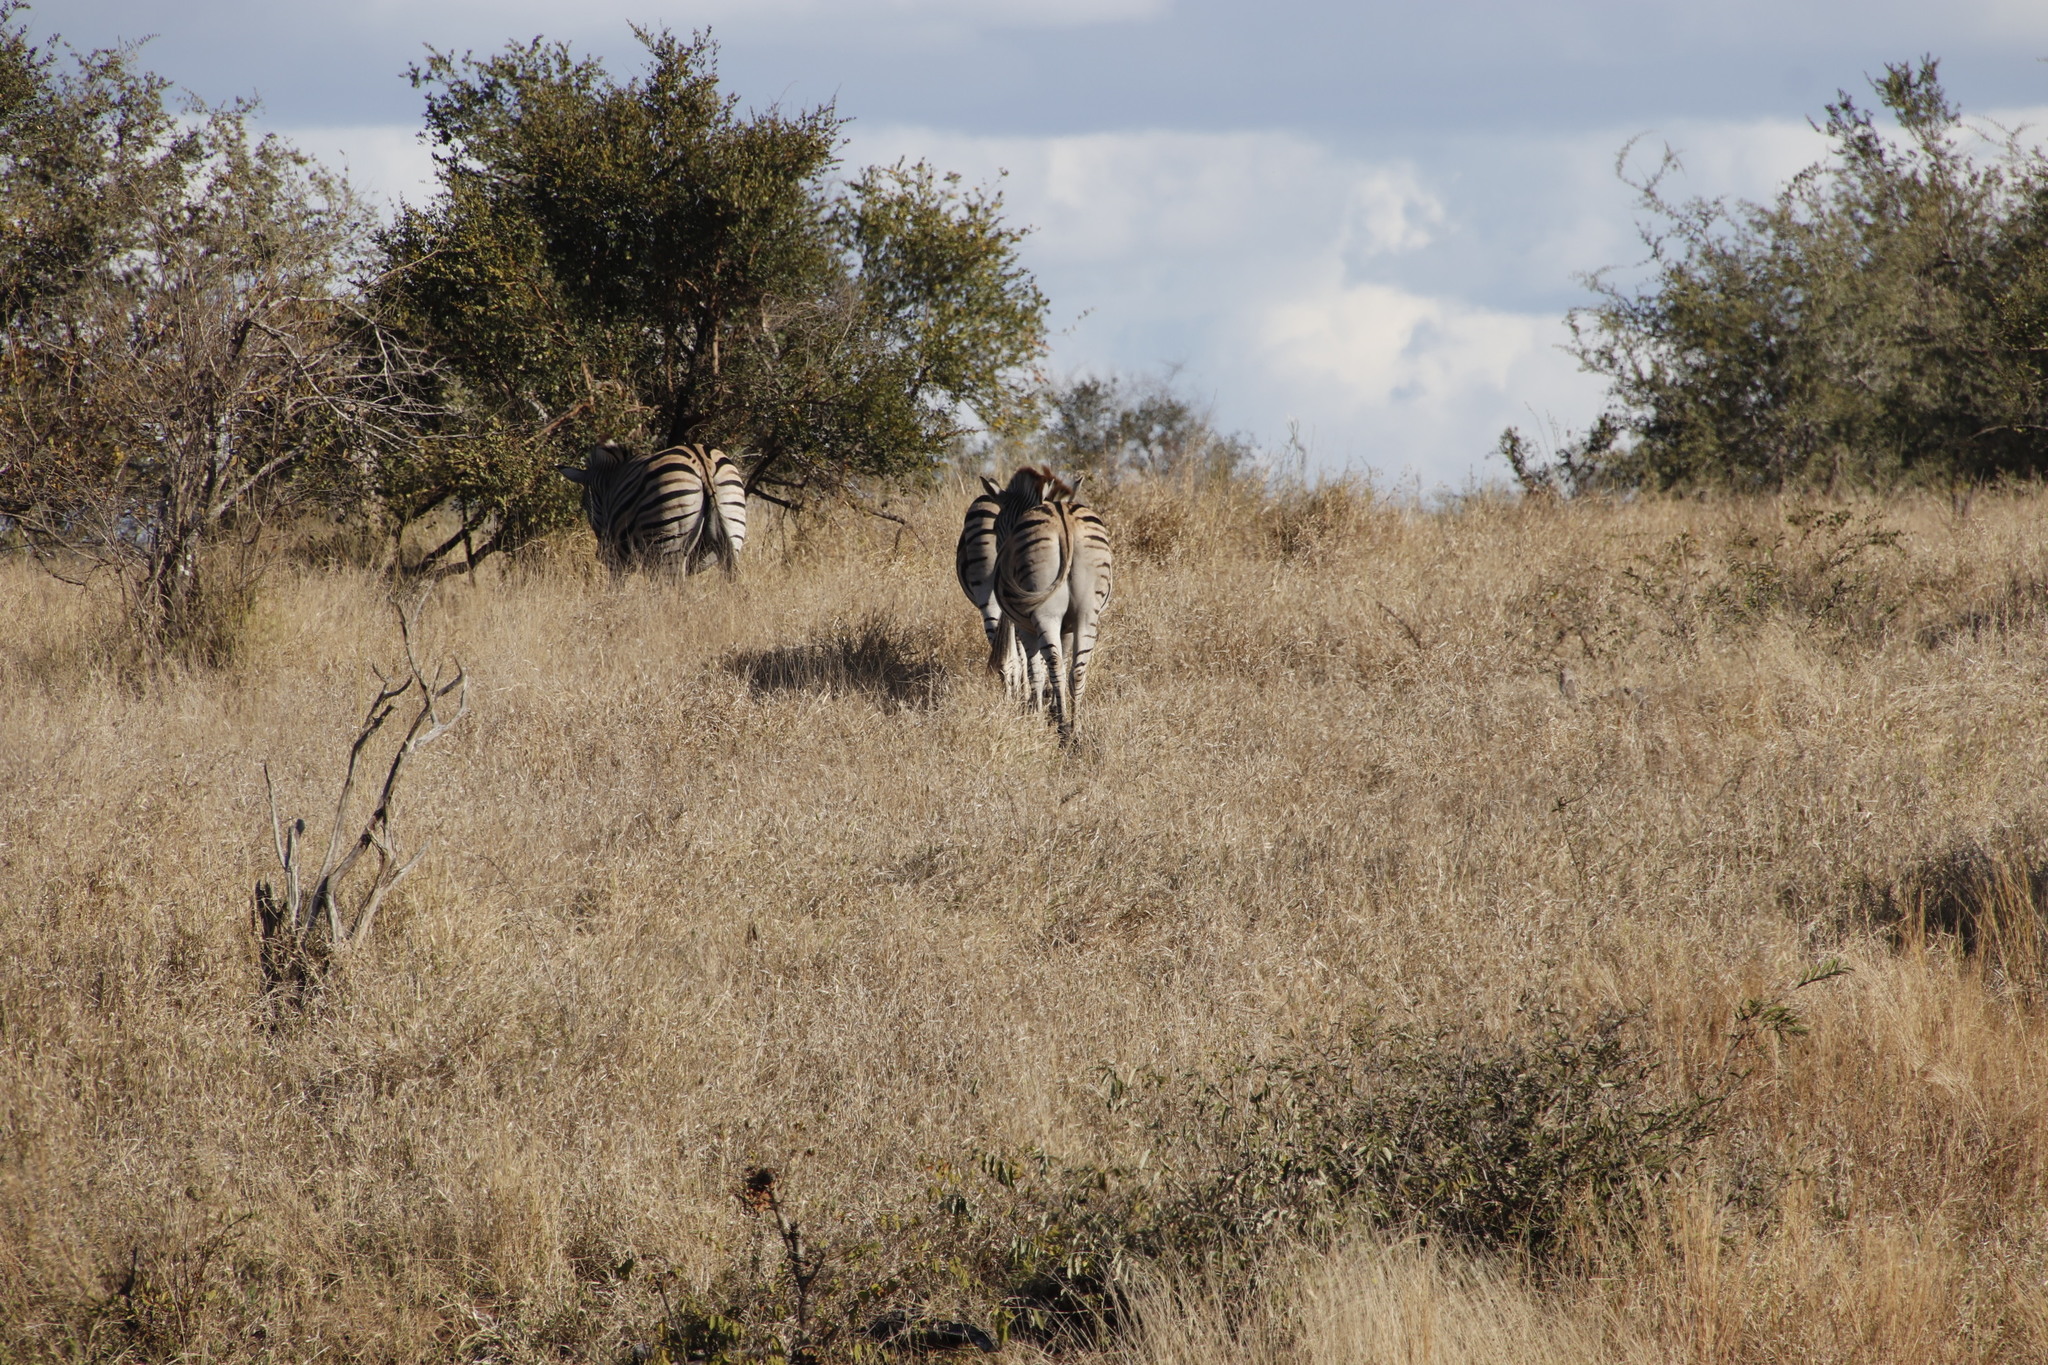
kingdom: Animalia
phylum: Chordata
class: Mammalia
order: Perissodactyla
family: Equidae
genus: Equus
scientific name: Equus quagga
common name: Plains zebra
